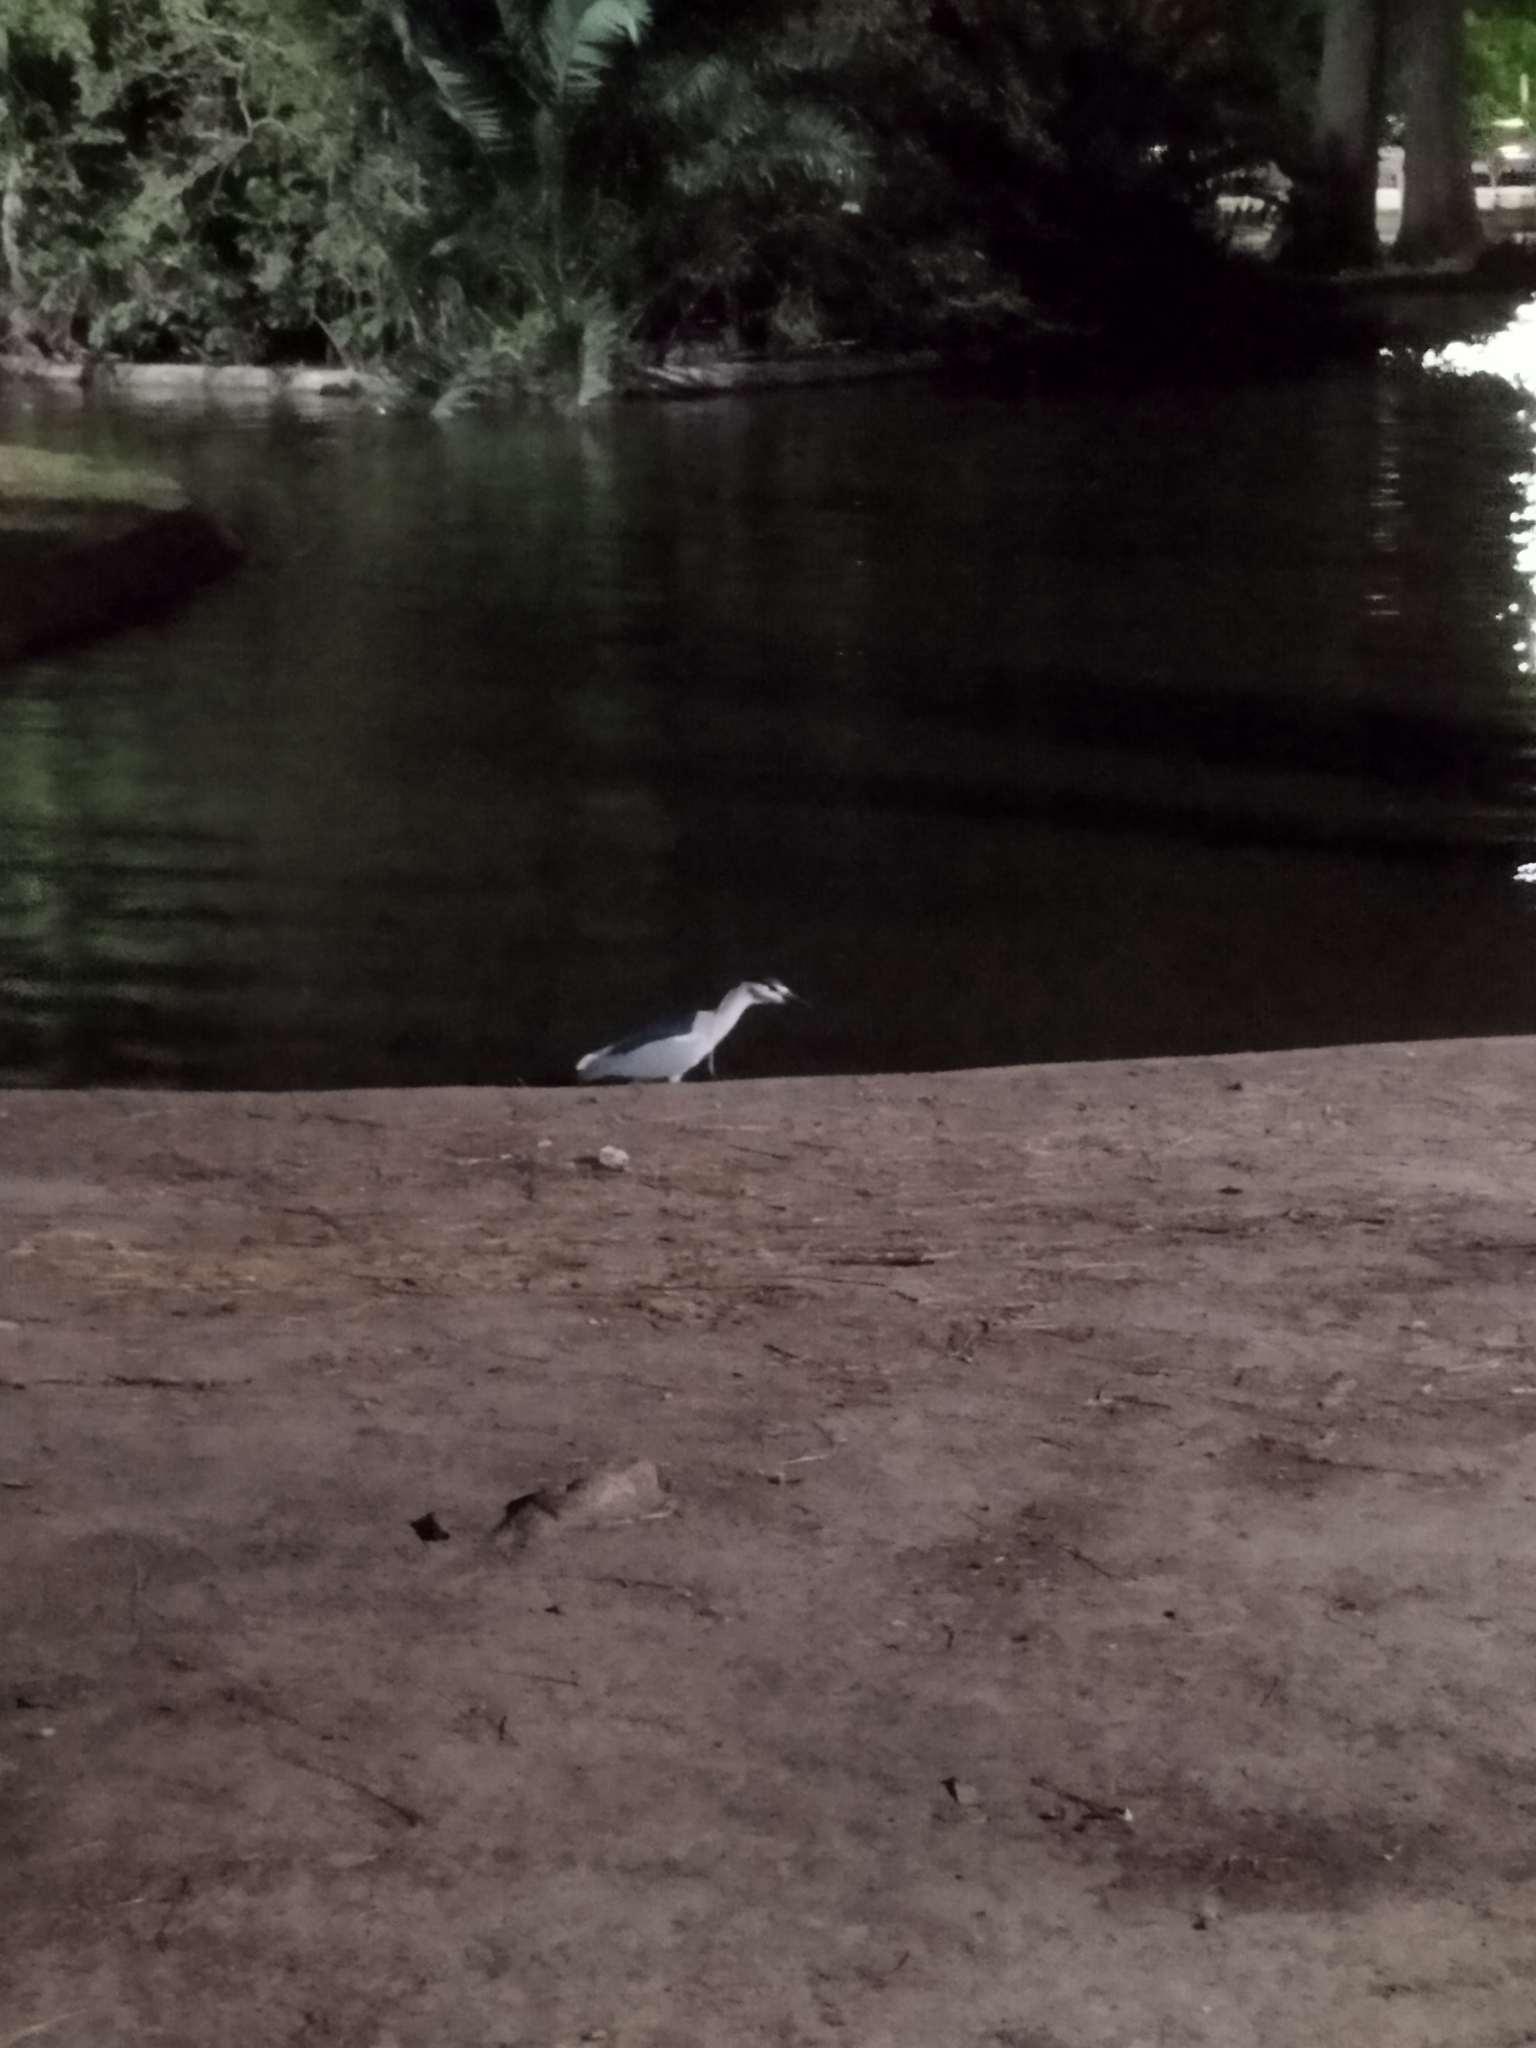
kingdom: Animalia
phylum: Chordata
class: Aves
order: Pelecaniformes
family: Ardeidae
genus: Nycticorax
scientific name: Nycticorax nycticorax
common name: Black-crowned night heron
